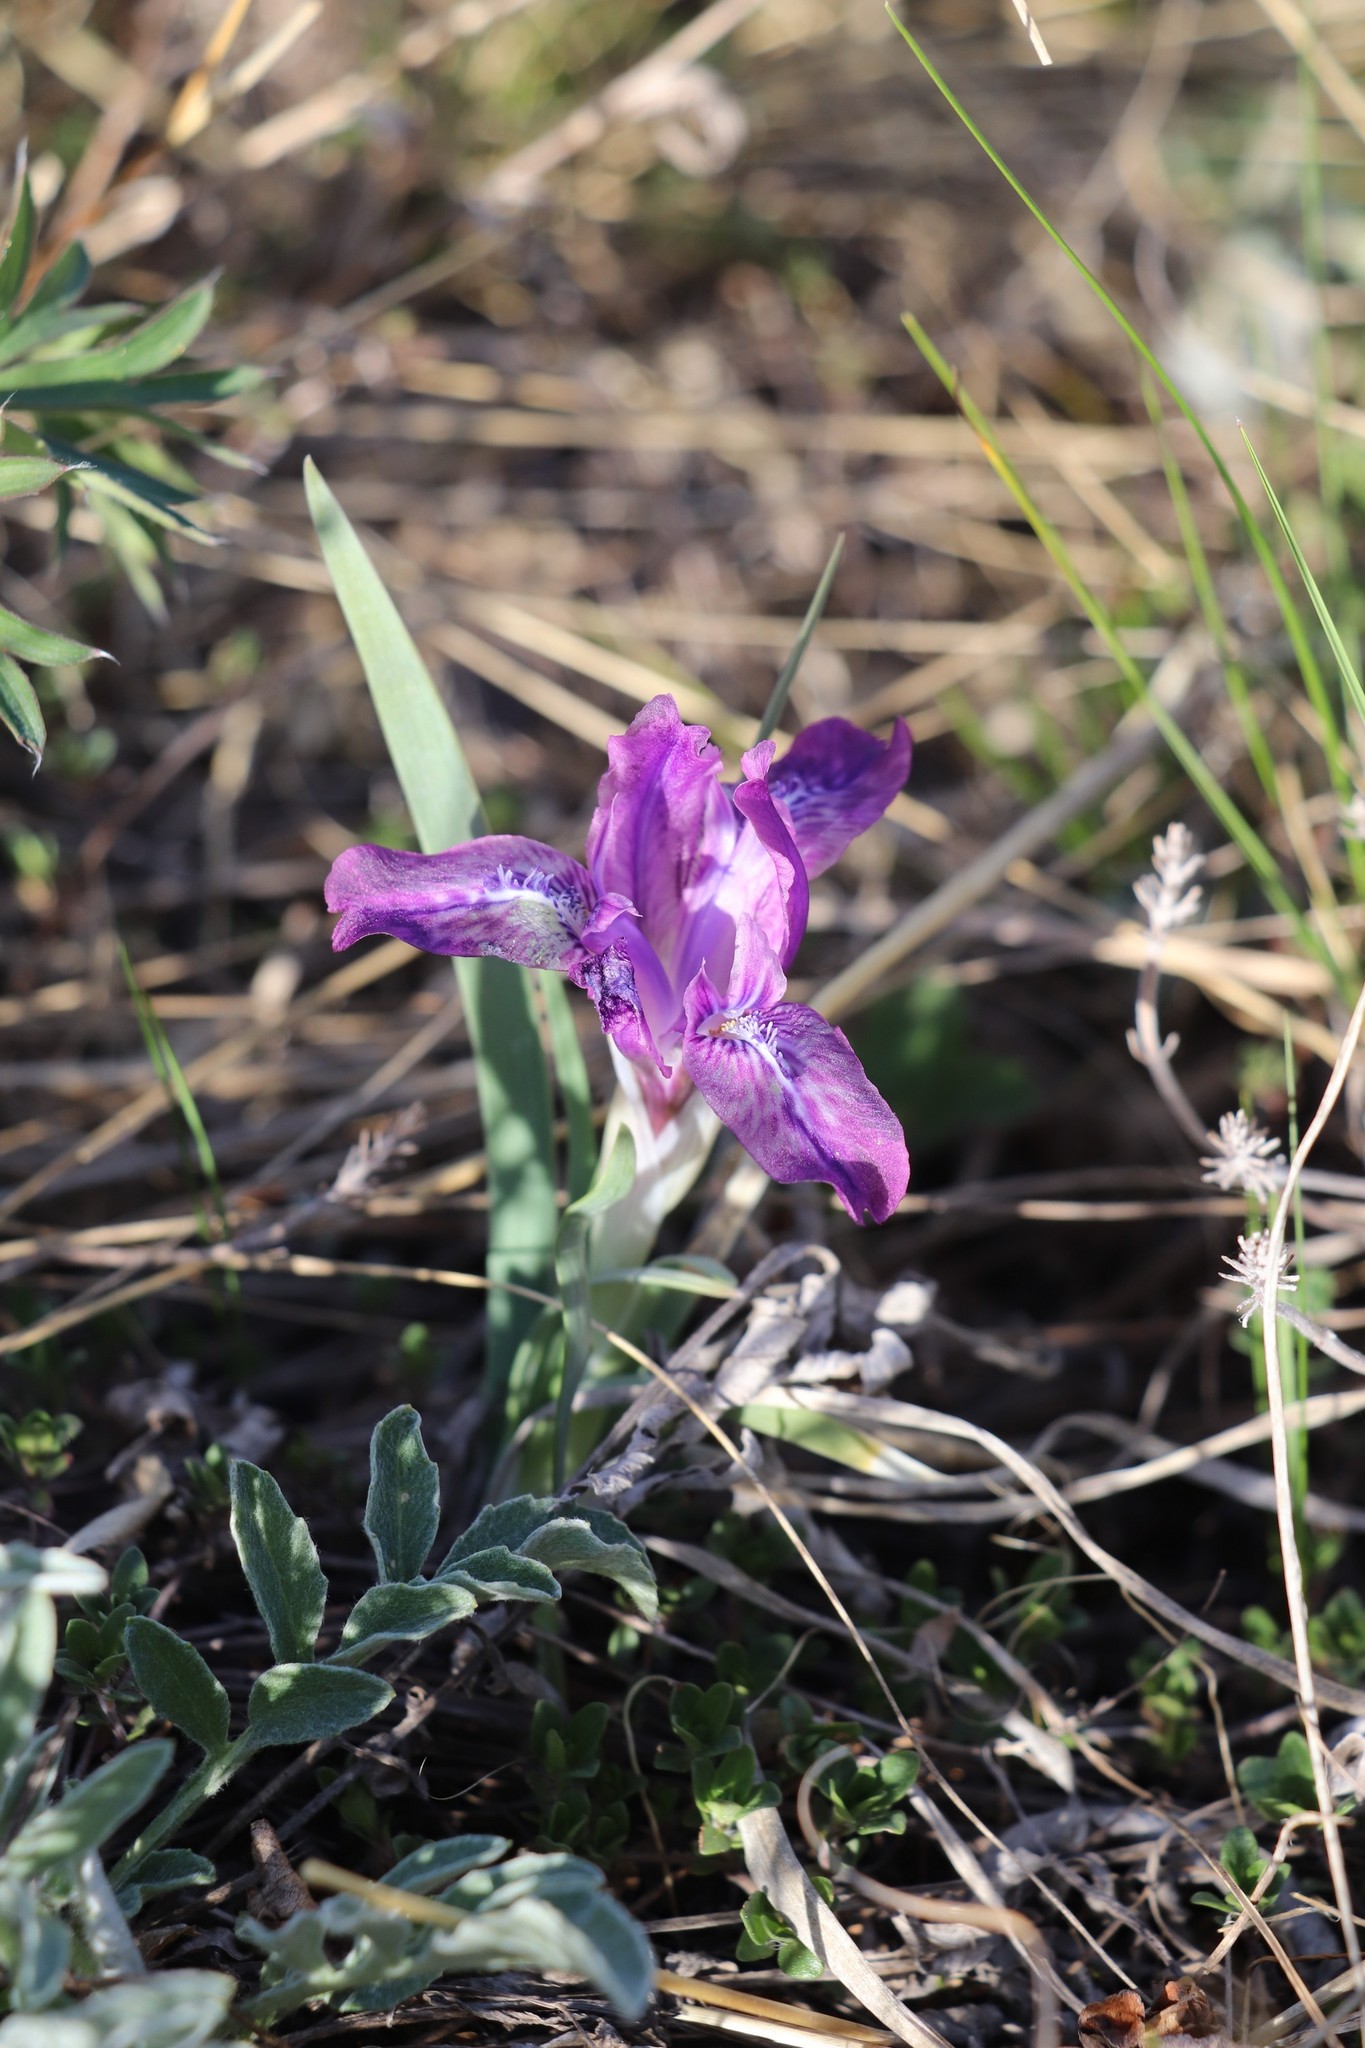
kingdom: Plantae
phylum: Tracheophyta
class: Liliopsida
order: Asparagales
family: Iridaceae
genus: Iris
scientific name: Iris tigridia
